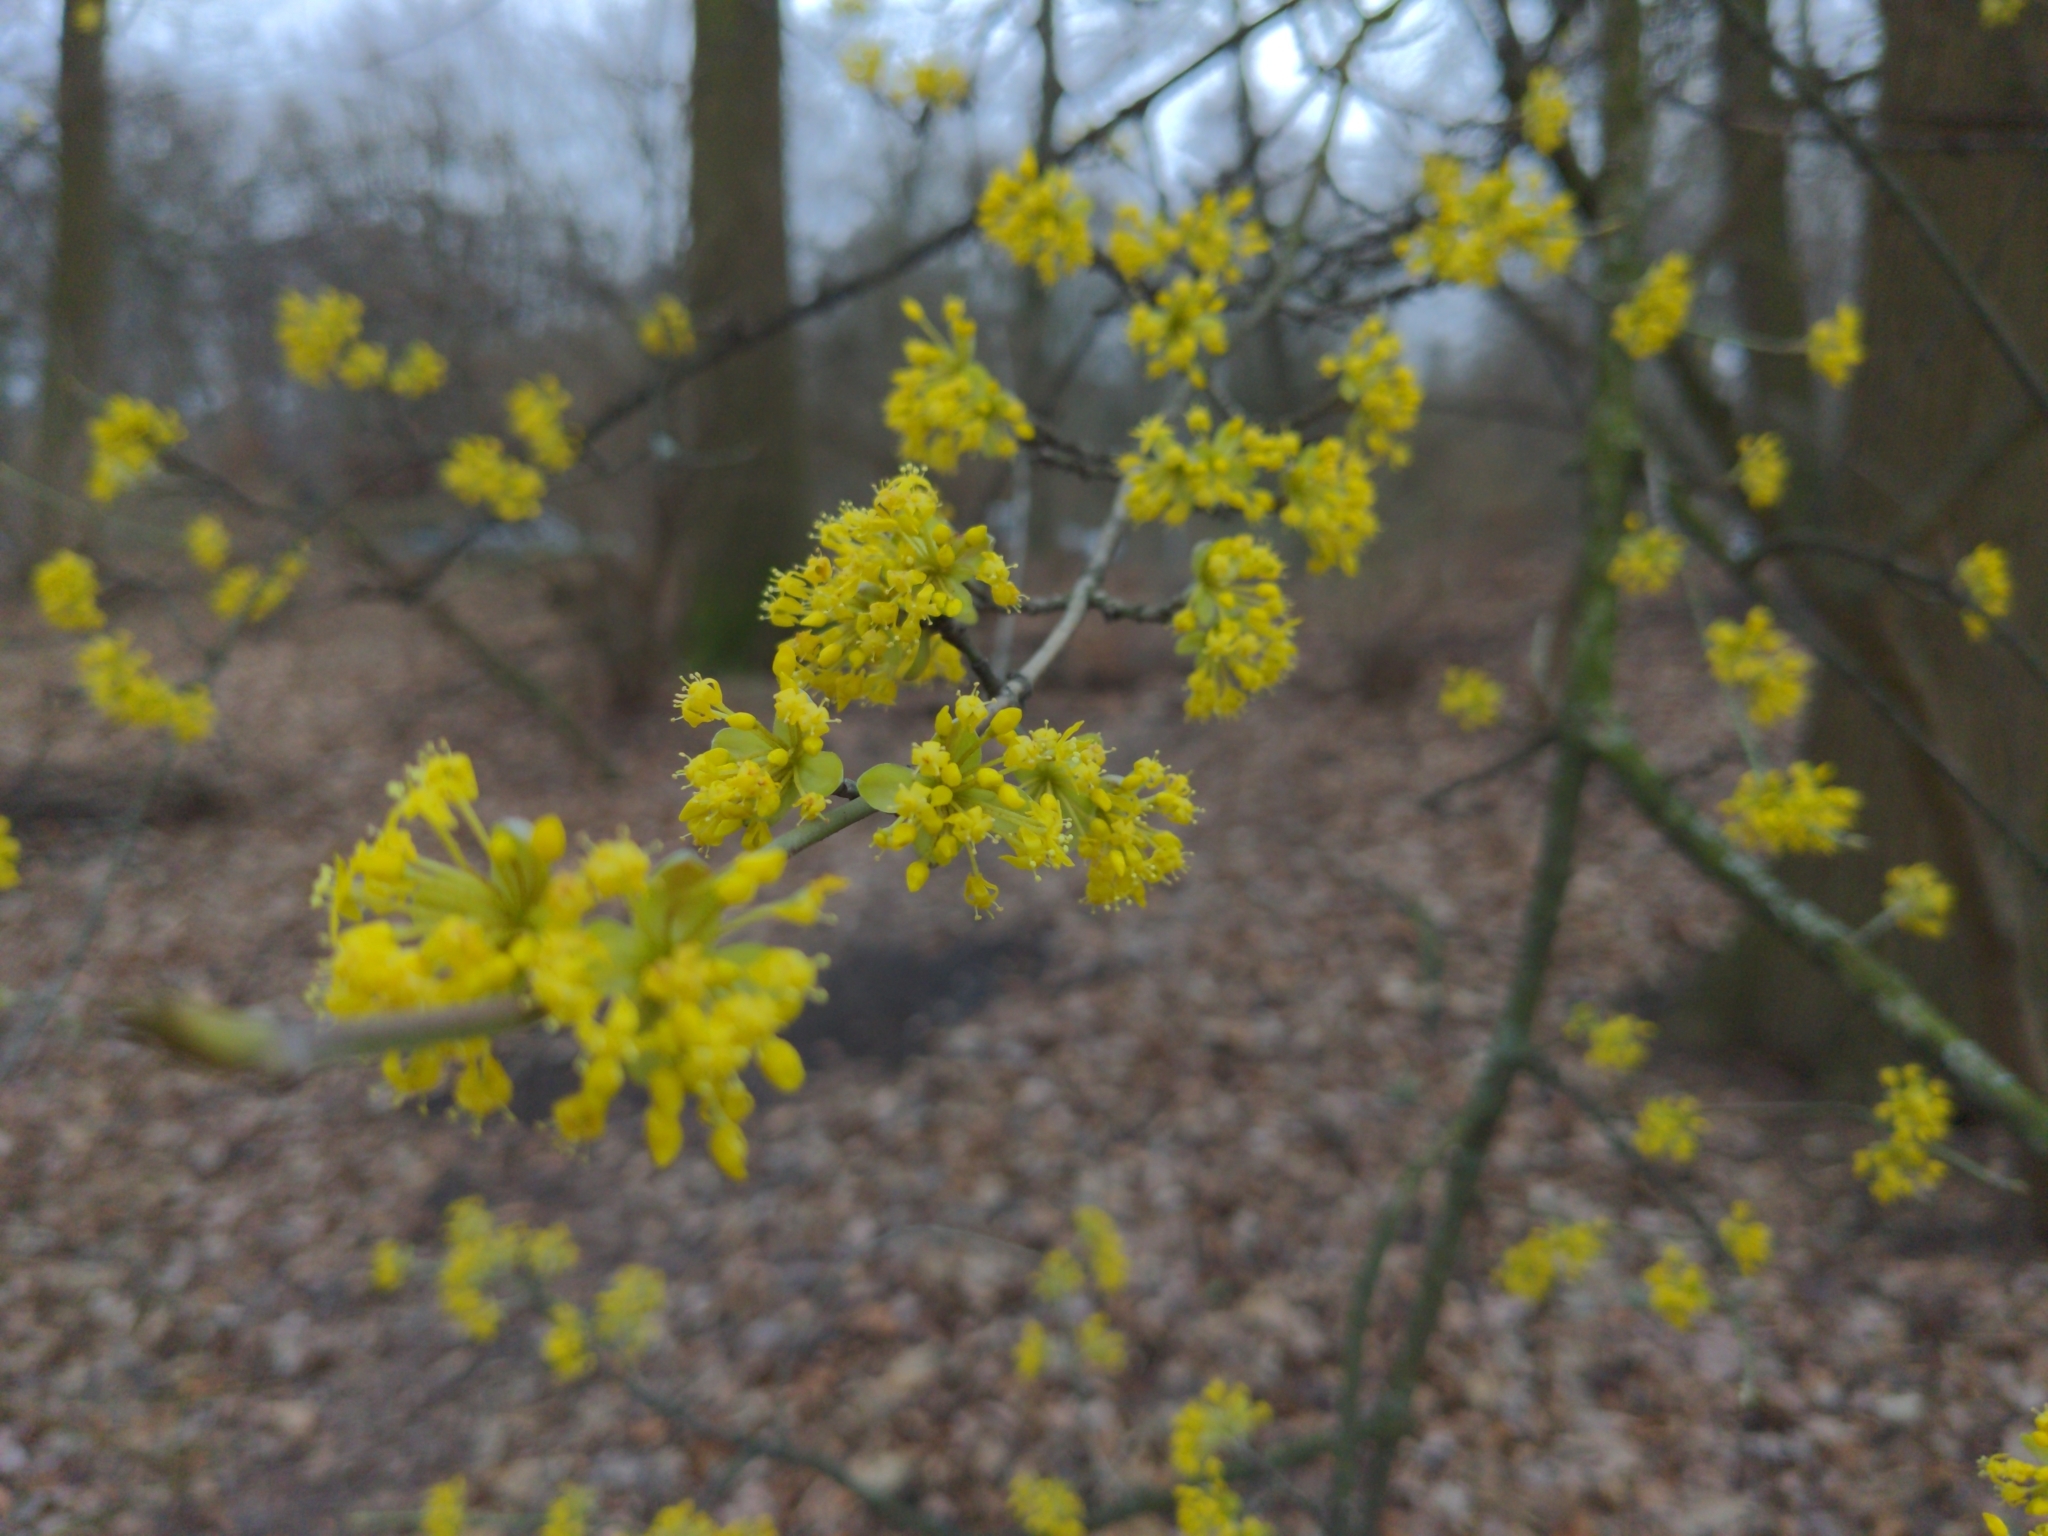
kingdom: Plantae
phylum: Tracheophyta
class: Magnoliopsida
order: Cornales
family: Cornaceae
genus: Cornus
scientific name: Cornus mas
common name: Cornelian-cherry
